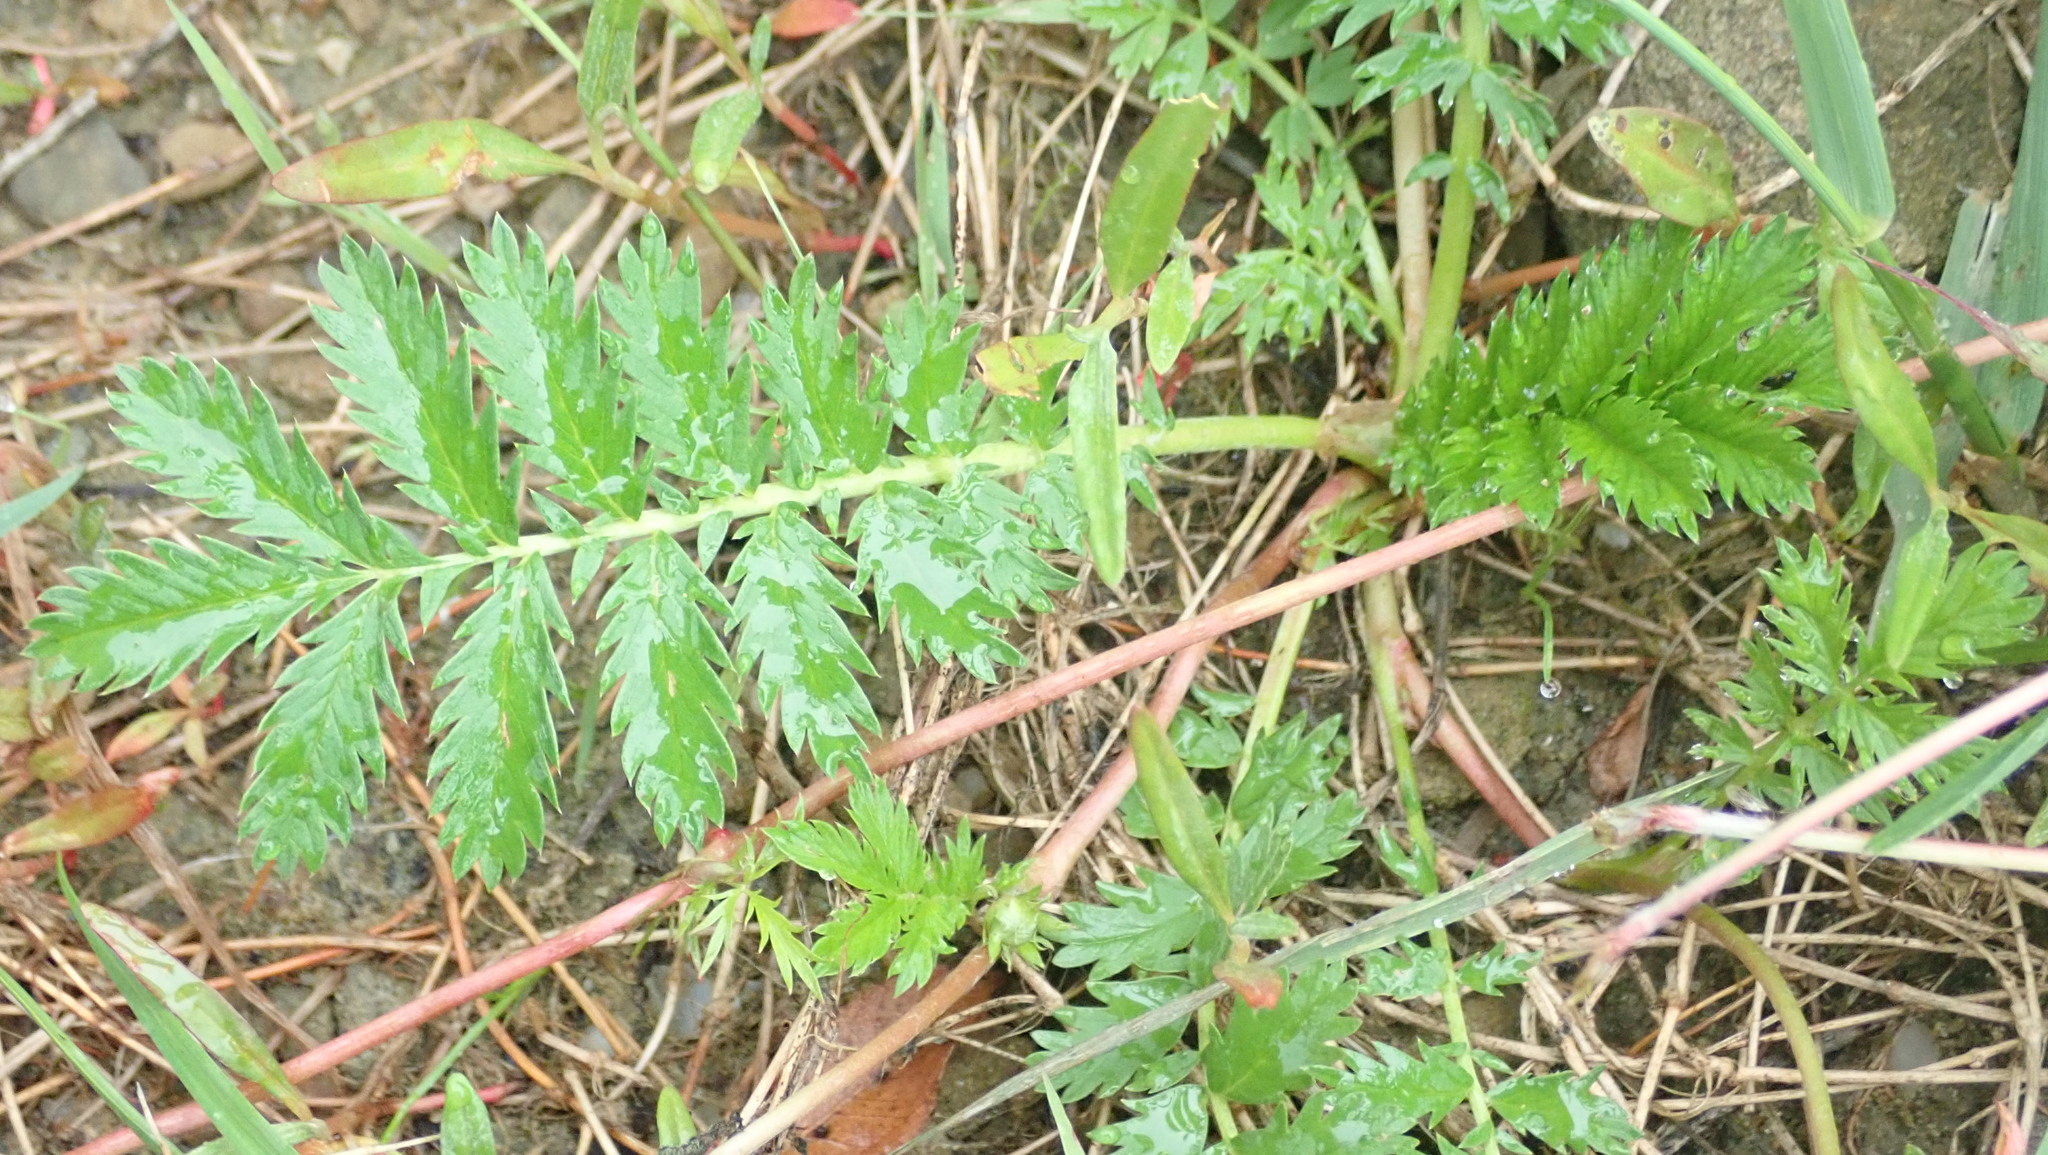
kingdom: Plantae
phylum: Tracheophyta
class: Magnoliopsida
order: Rosales
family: Rosaceae
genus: Argentina
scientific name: Argentina anserina
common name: Common silverweed
